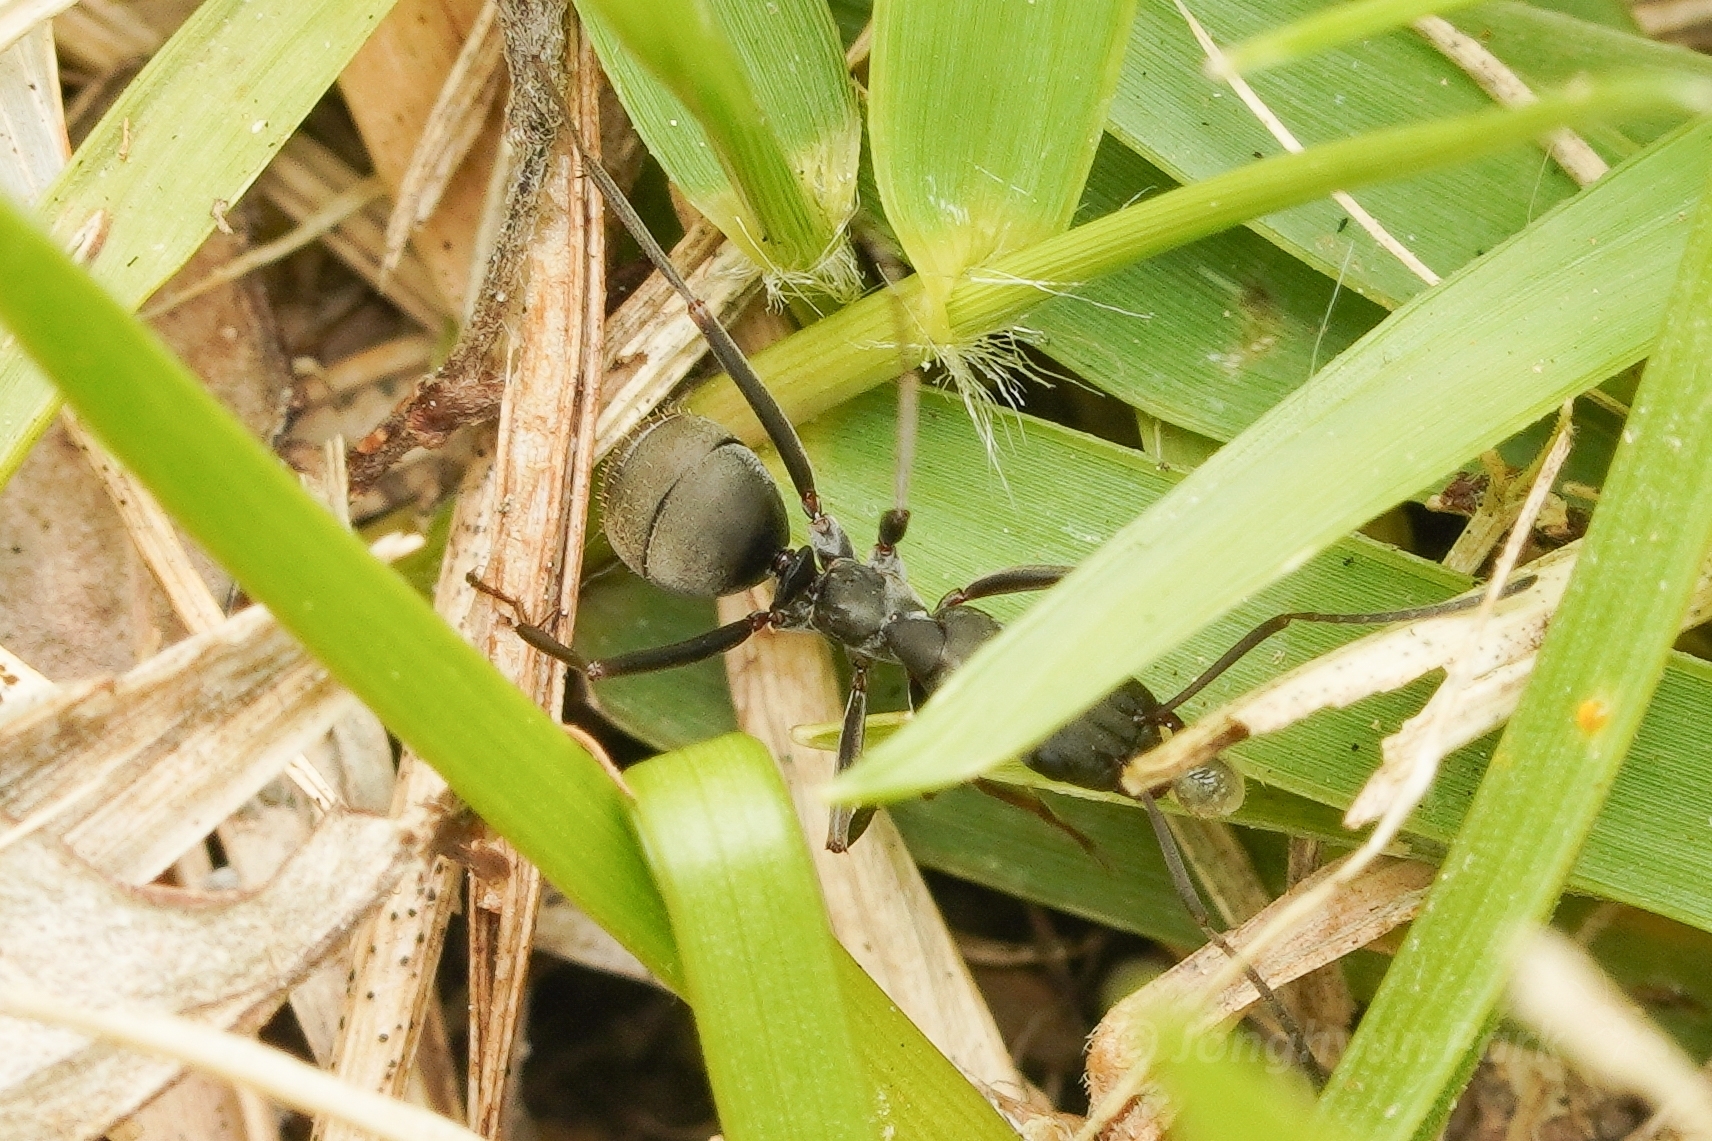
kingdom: Animalia
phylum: Arthropoda
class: Insecta
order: Hymenoptera
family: Formicidae
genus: Formica
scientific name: Formica japonica
